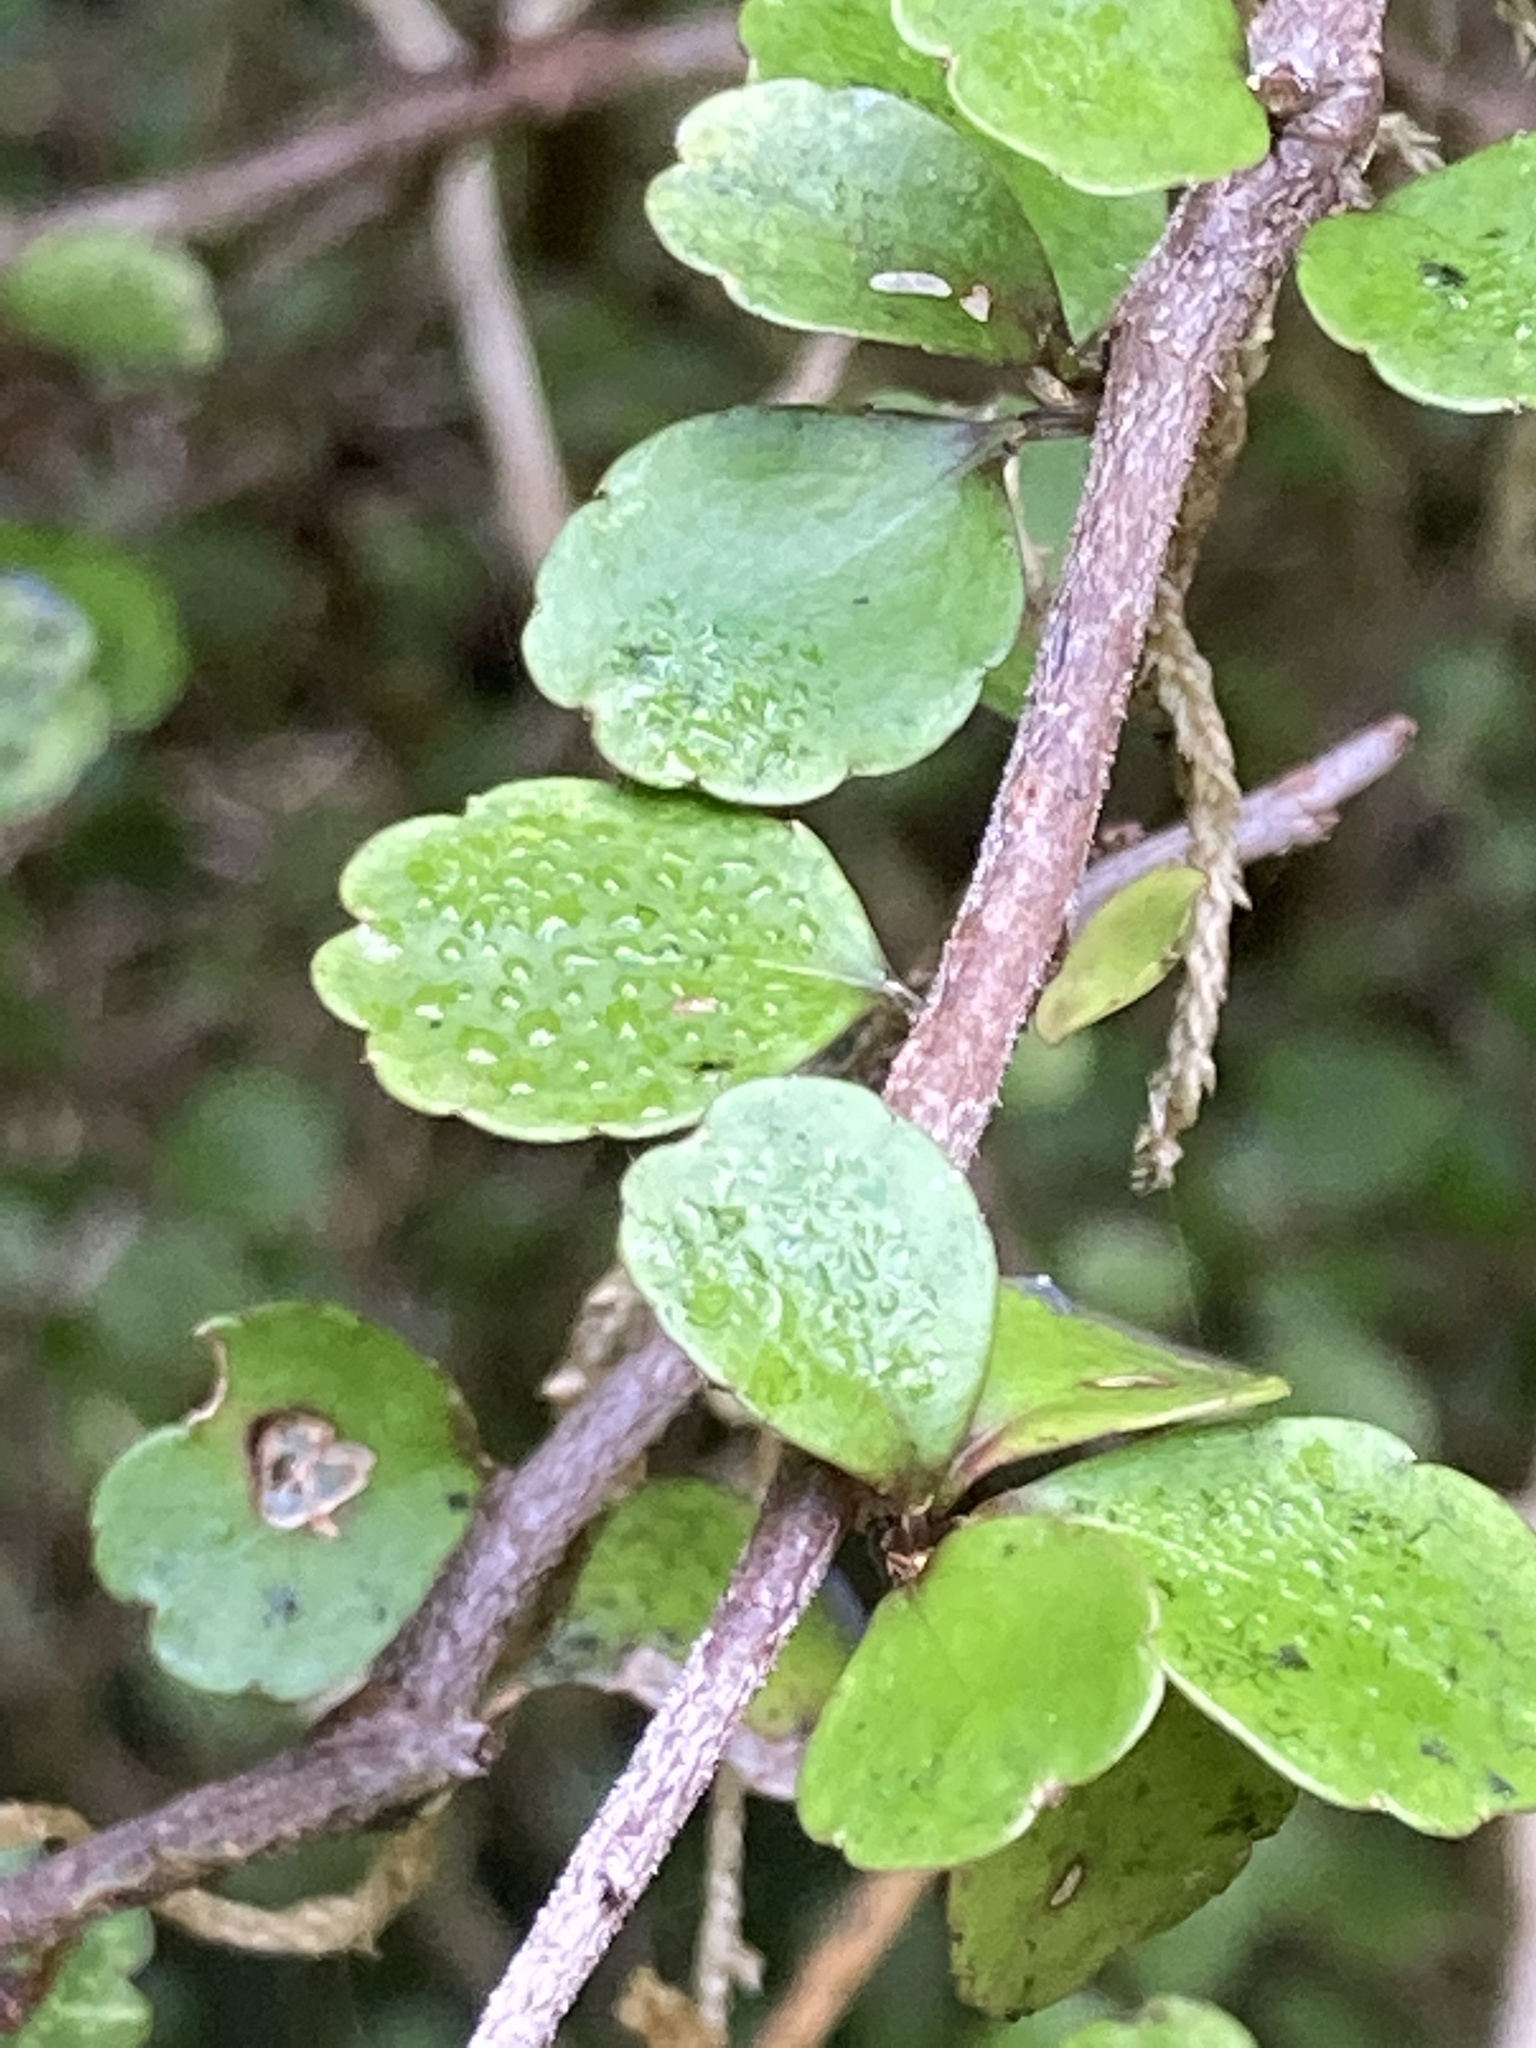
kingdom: Plantae
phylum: Tracheophyta
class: Magnoliopsida
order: Apiales
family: Araliaceae
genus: Raukaua
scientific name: Raukaua anomalus
